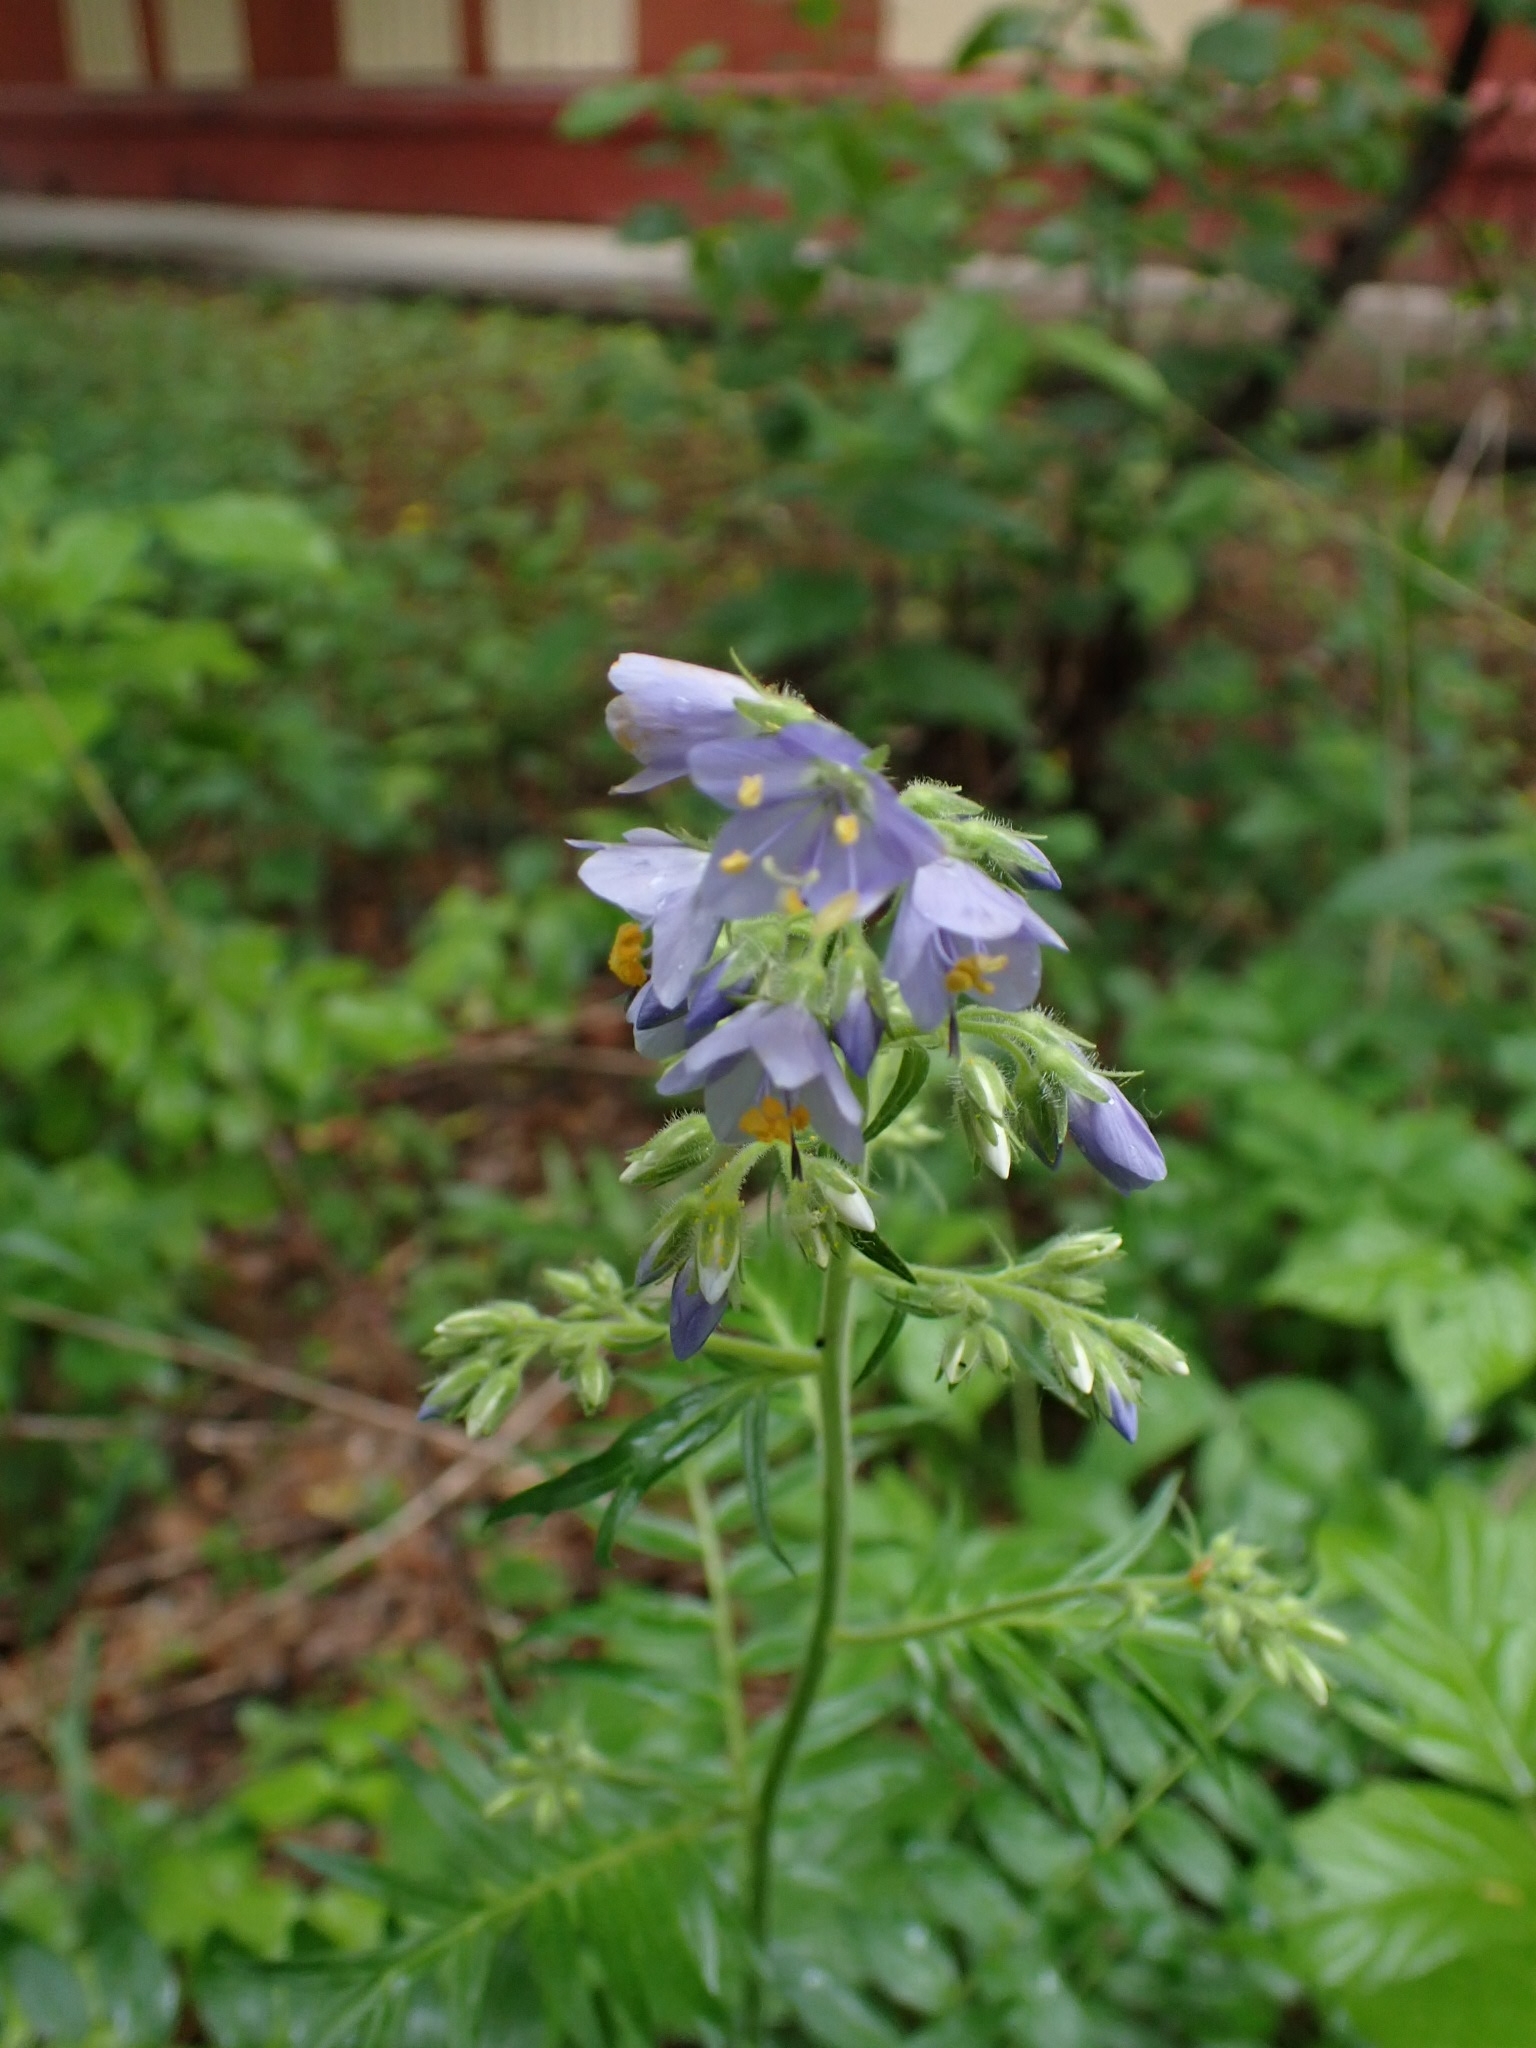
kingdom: Plantae
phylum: Tracheophyta
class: Magnoliopsida
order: Ericales
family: Polemoniaceae
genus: Polemonium
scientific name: Polemonium caeruleum
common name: Jacob's-ladder
